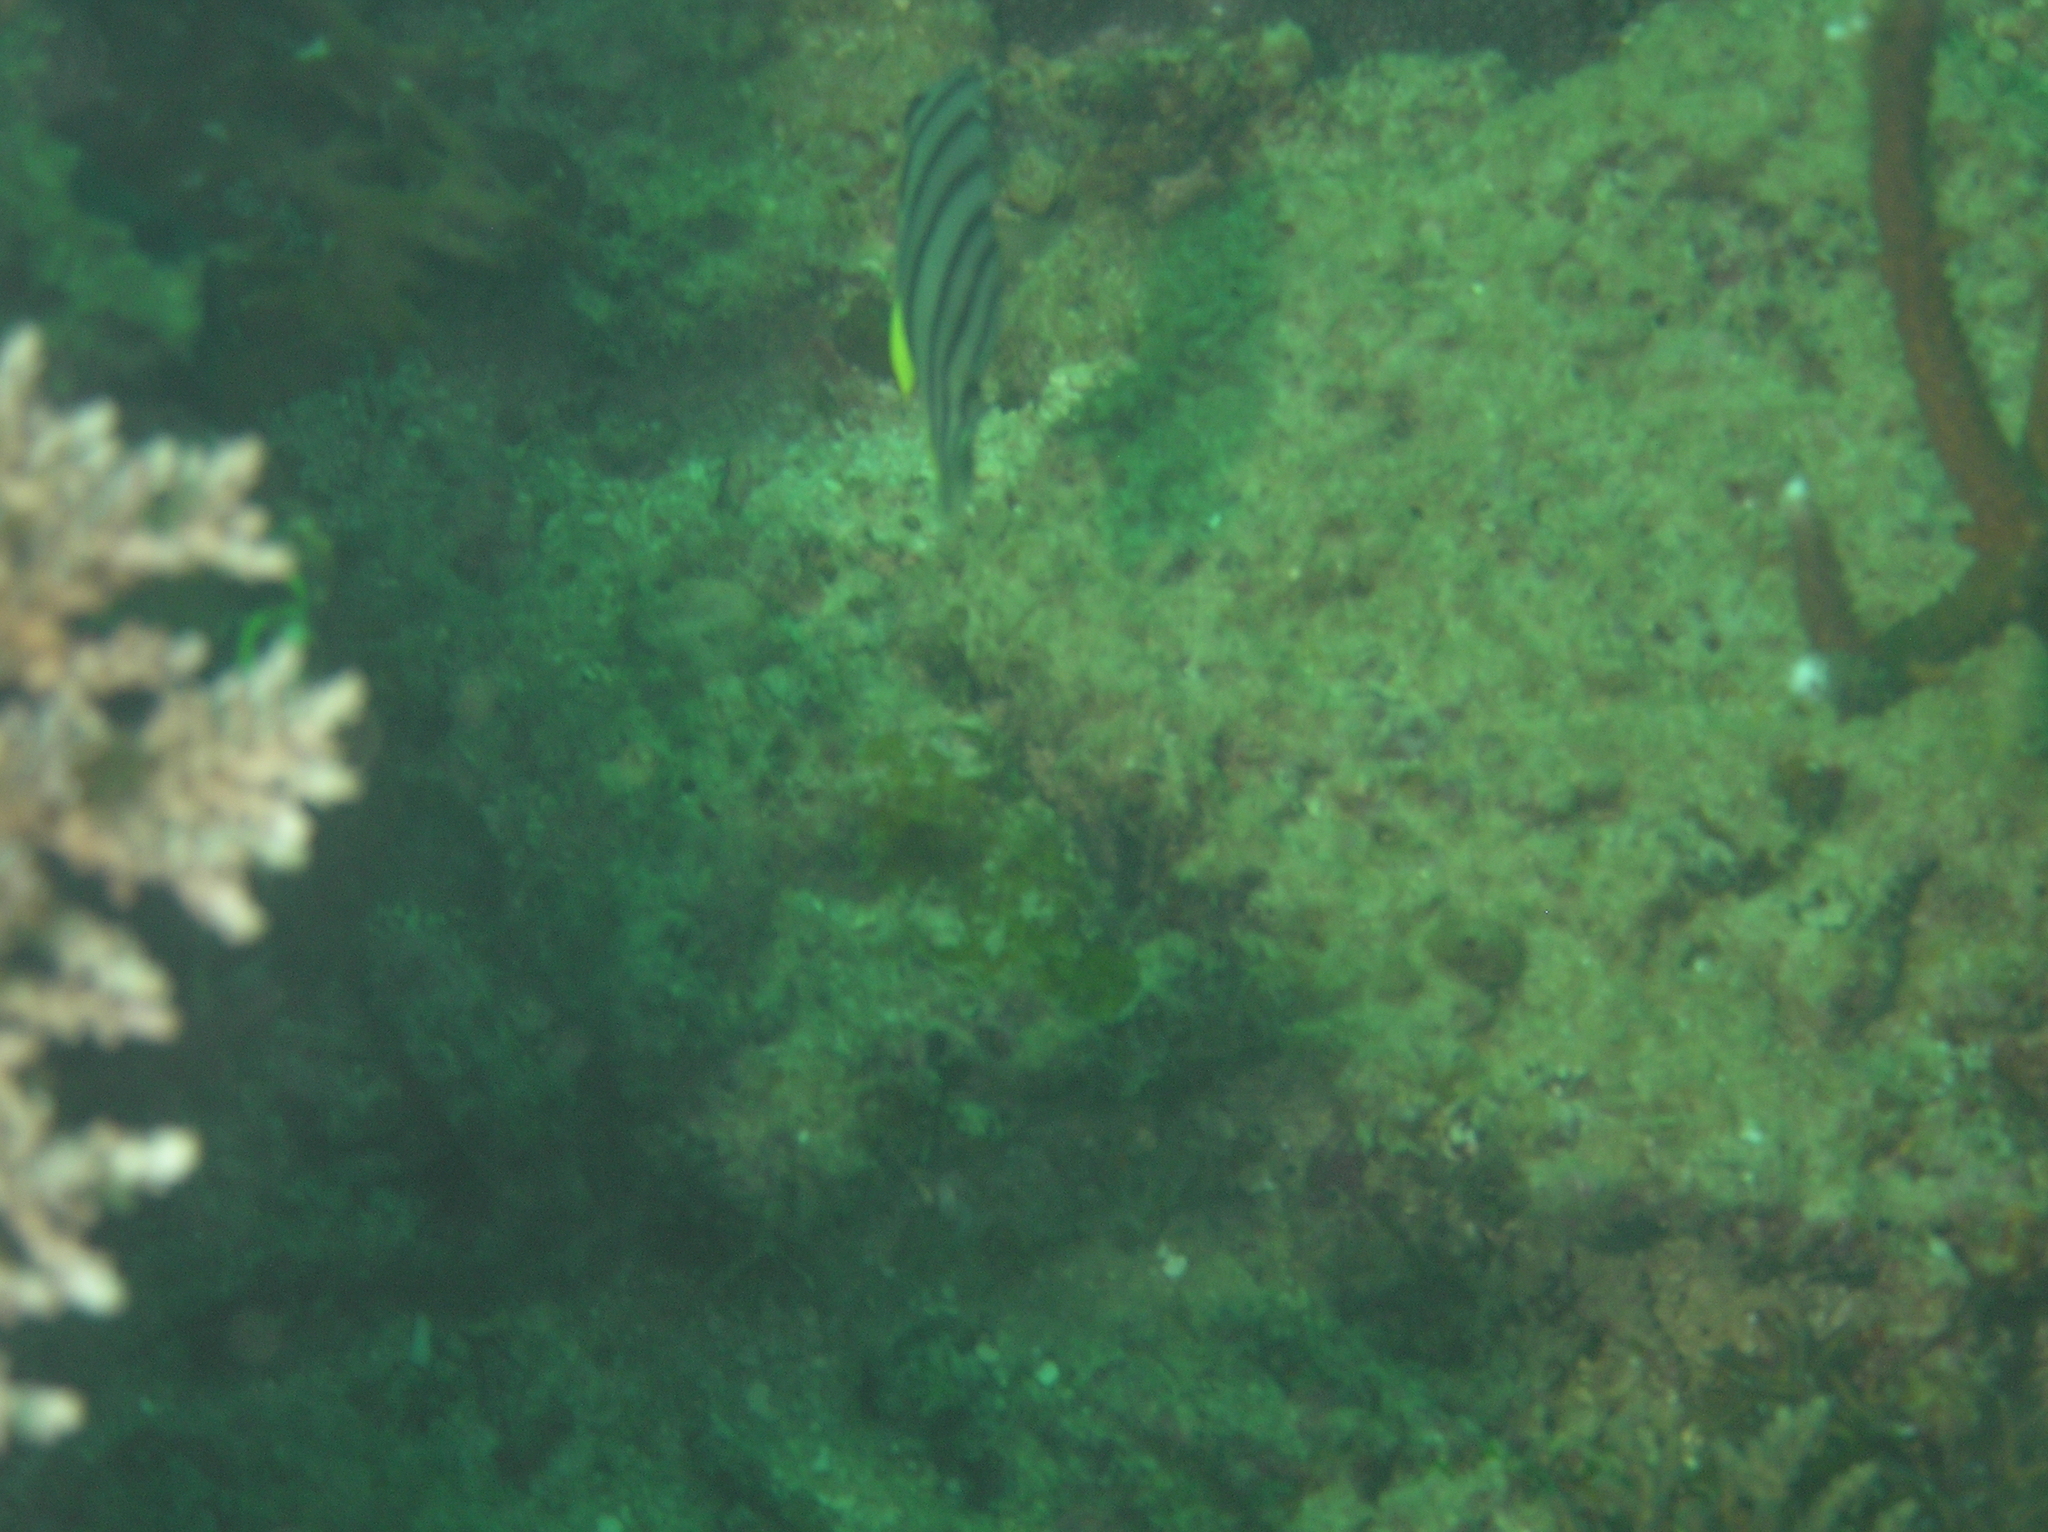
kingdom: Animalia
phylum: Chordata
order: Perciformes
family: Chaetodontidae
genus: Chaetodon
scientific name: Chaetodon octofasciatus
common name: Eightband butterflyfish
